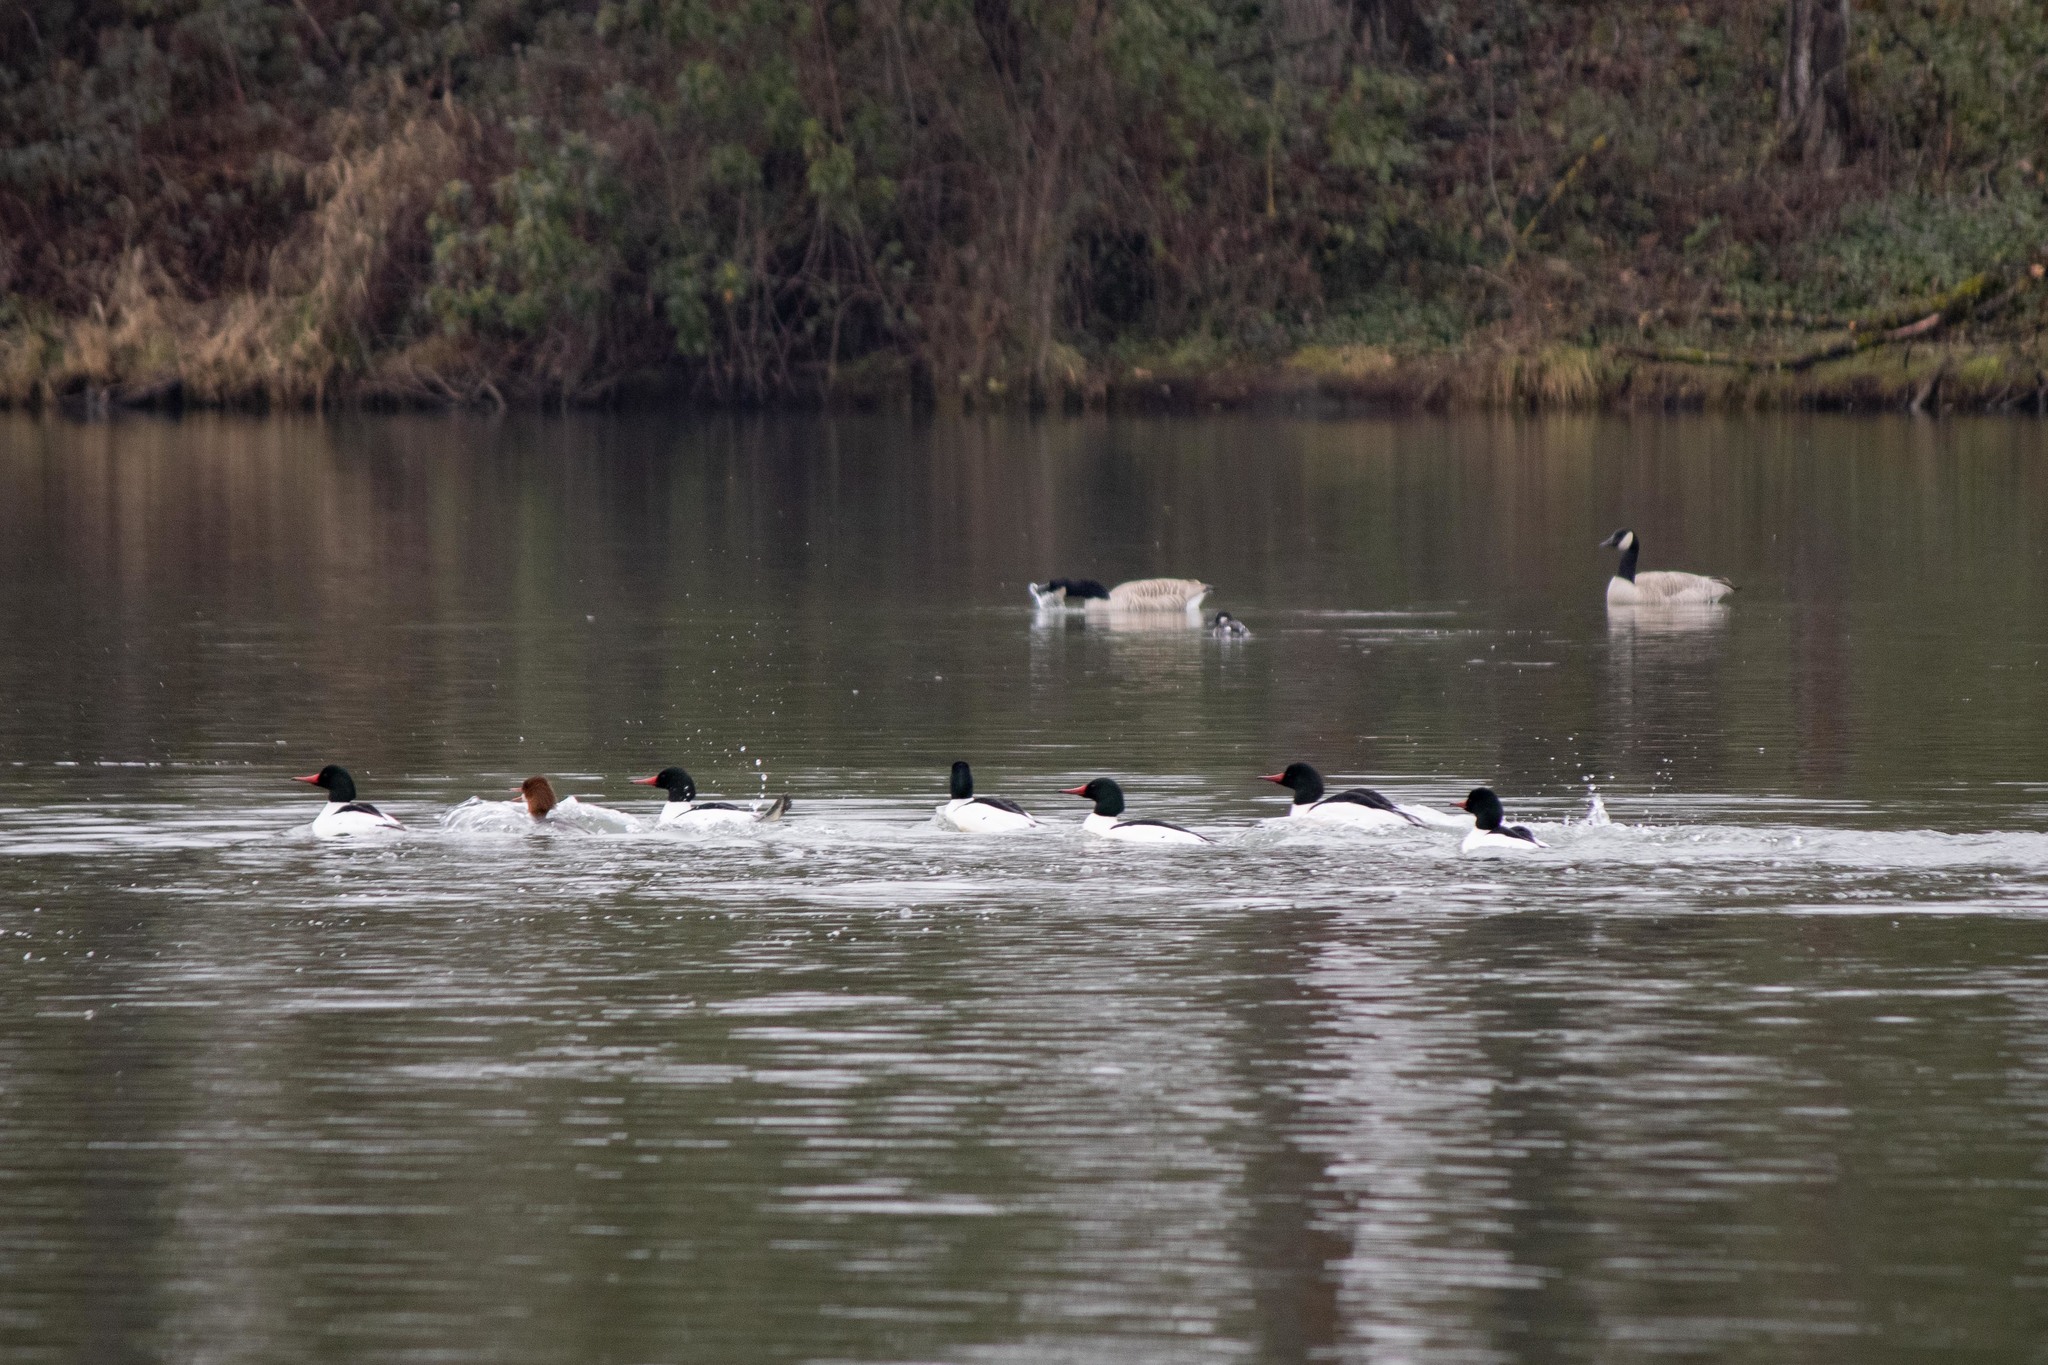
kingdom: Animalia
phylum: Chordata
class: Aves
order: Anseriformes
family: Anatidae
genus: Mergus
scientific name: Mergus merganser
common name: Common merganser
